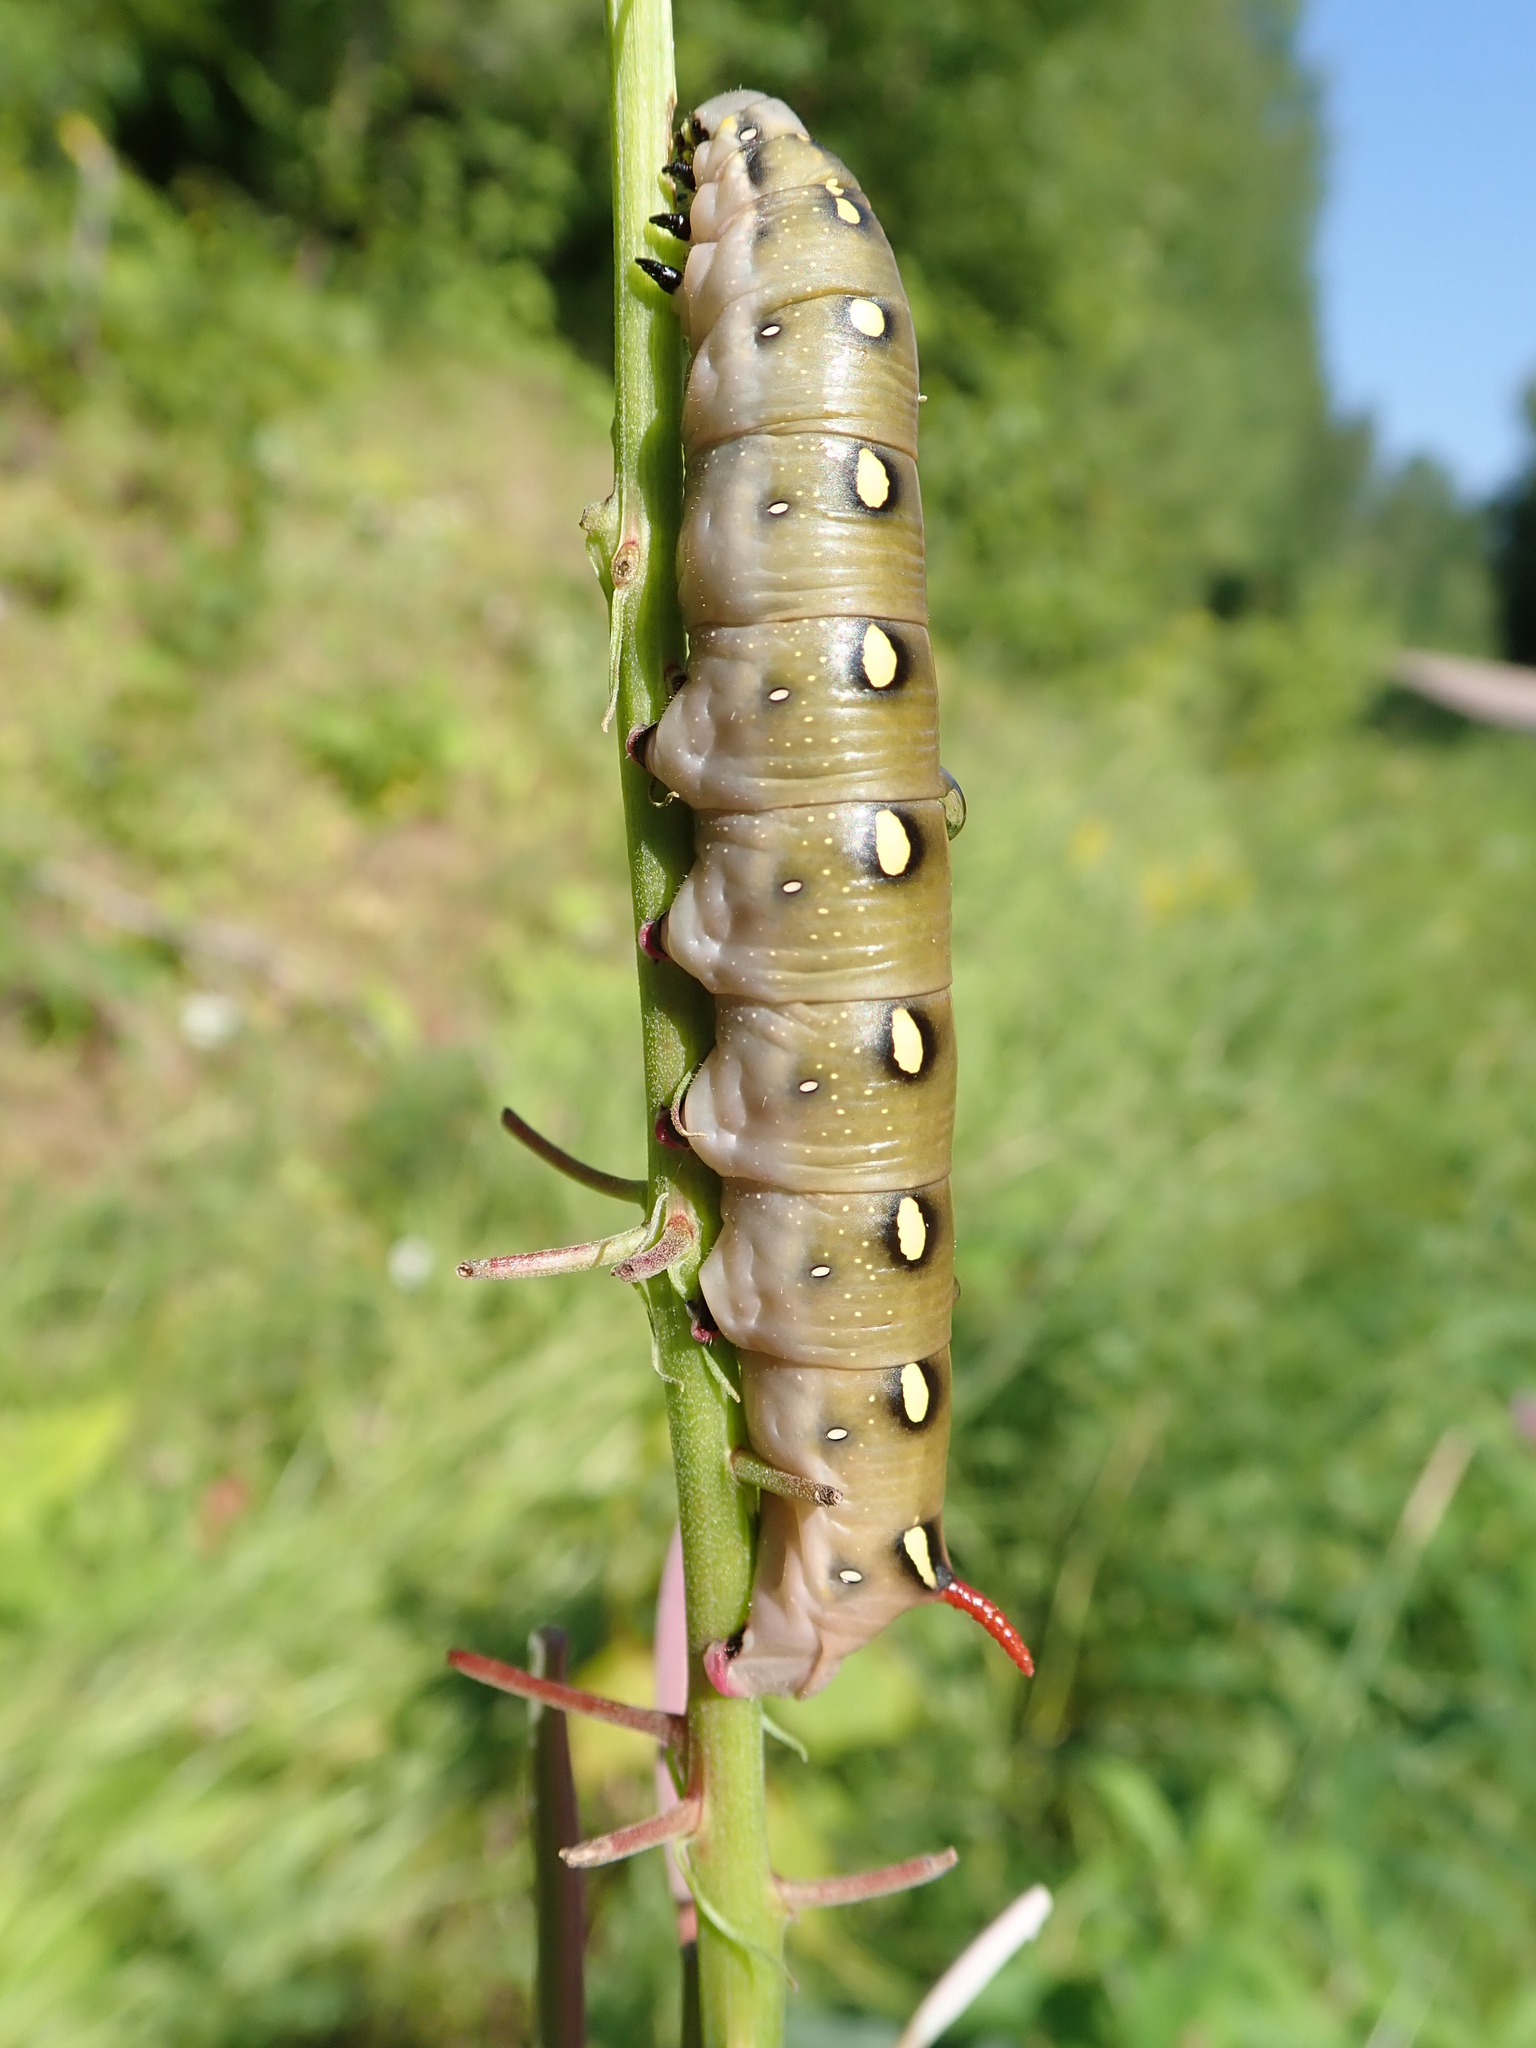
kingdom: Animalia
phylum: Arthropoda
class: Insecta
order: Lepidoptera
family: Sphingidae
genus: Hyles
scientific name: Hyles gallii
